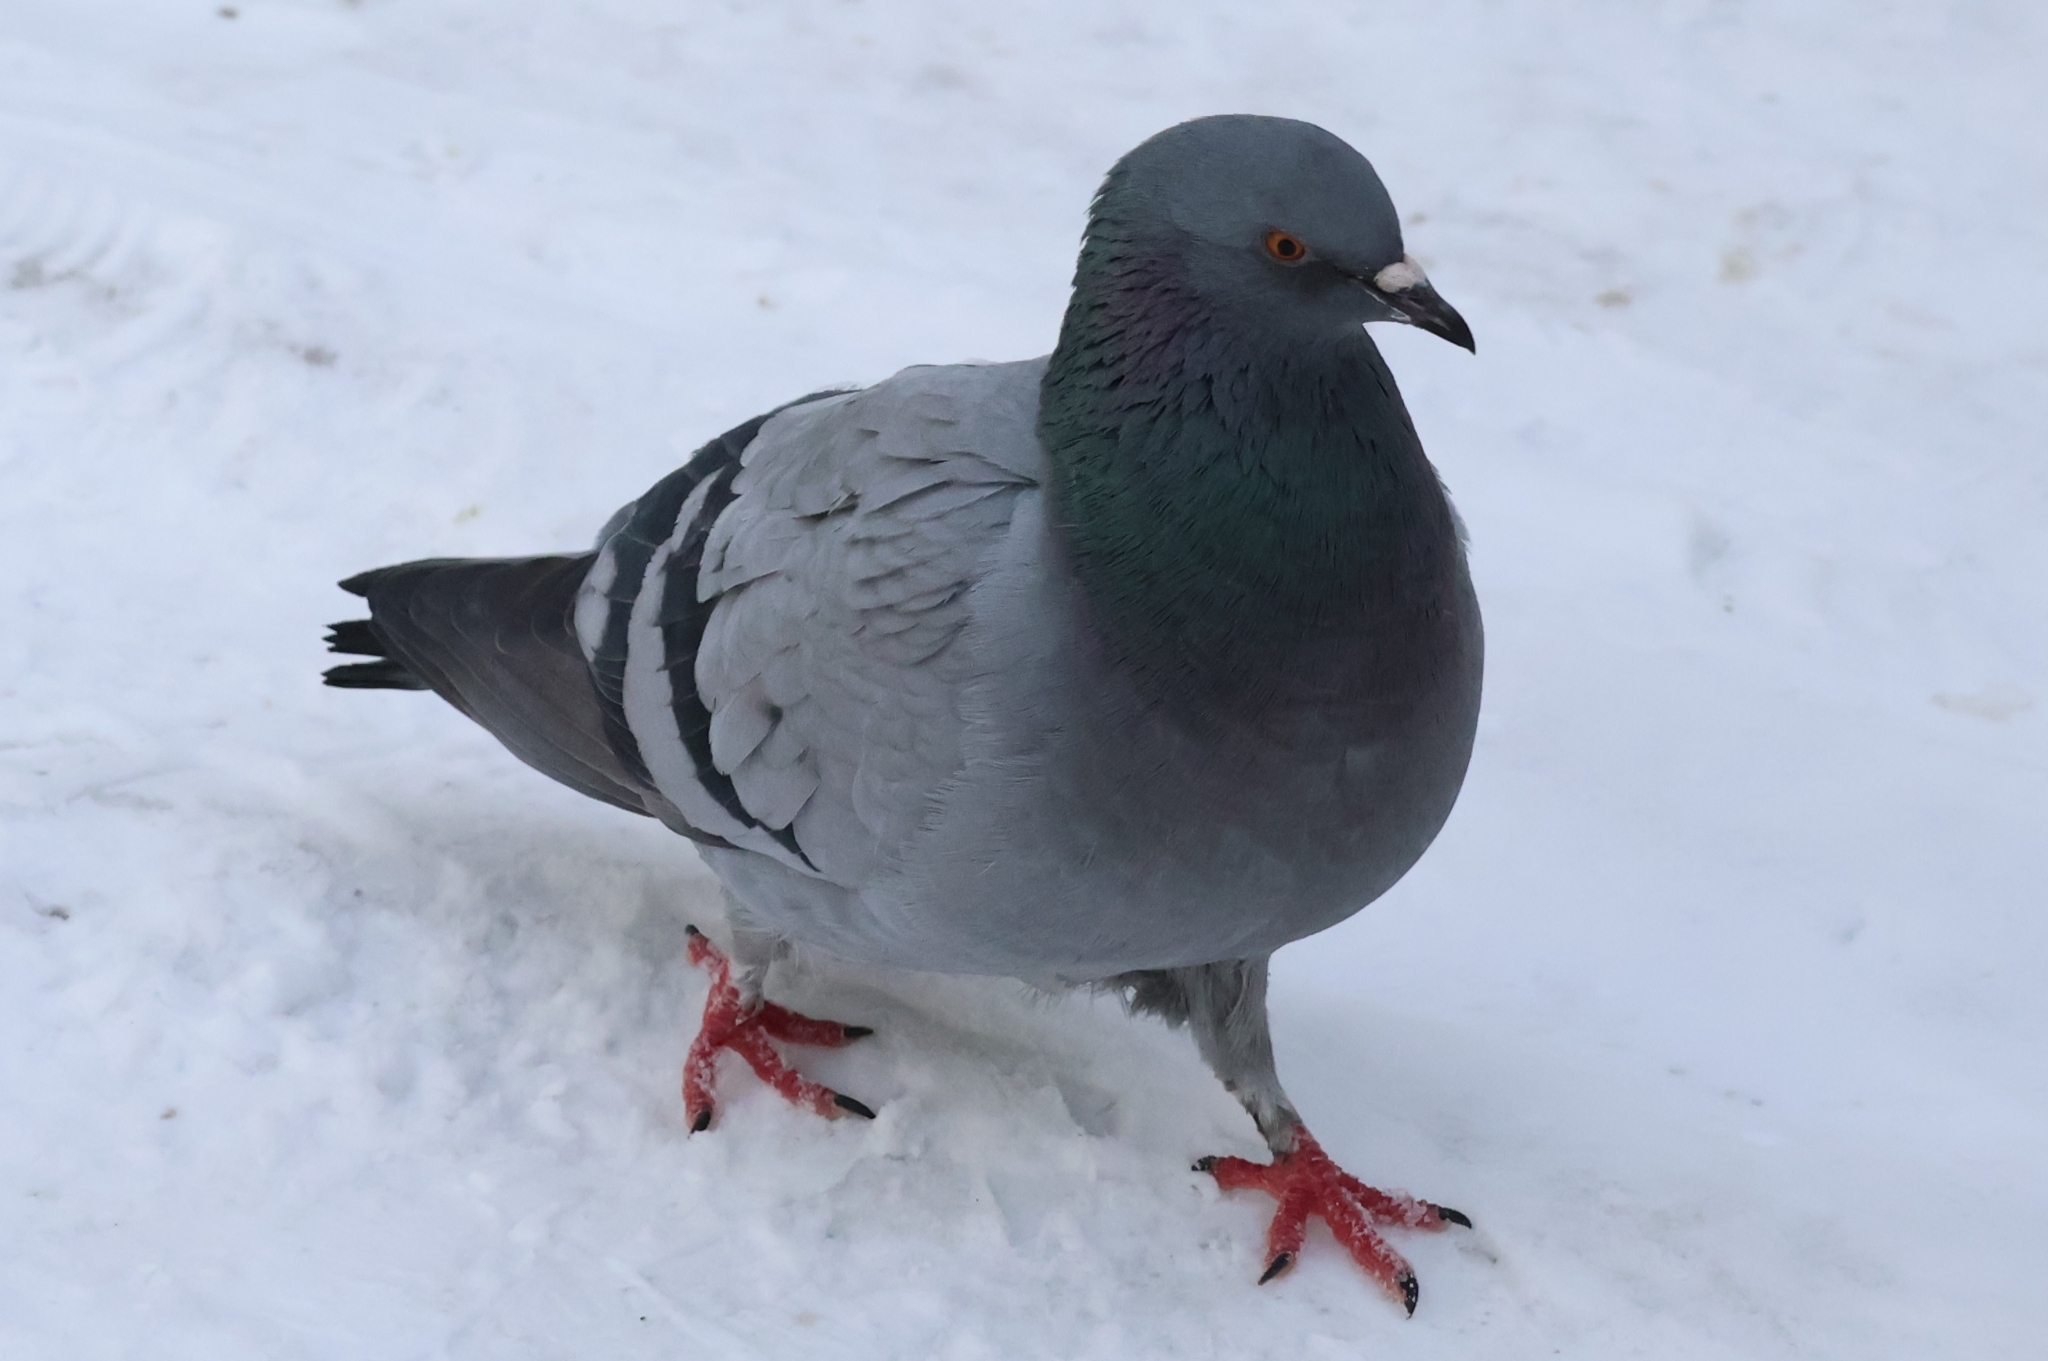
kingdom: Animalia
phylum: Chordata
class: Aves
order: Columbiformes
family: Columbidae
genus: Columba
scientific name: Columba livia
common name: Rock pigeon
